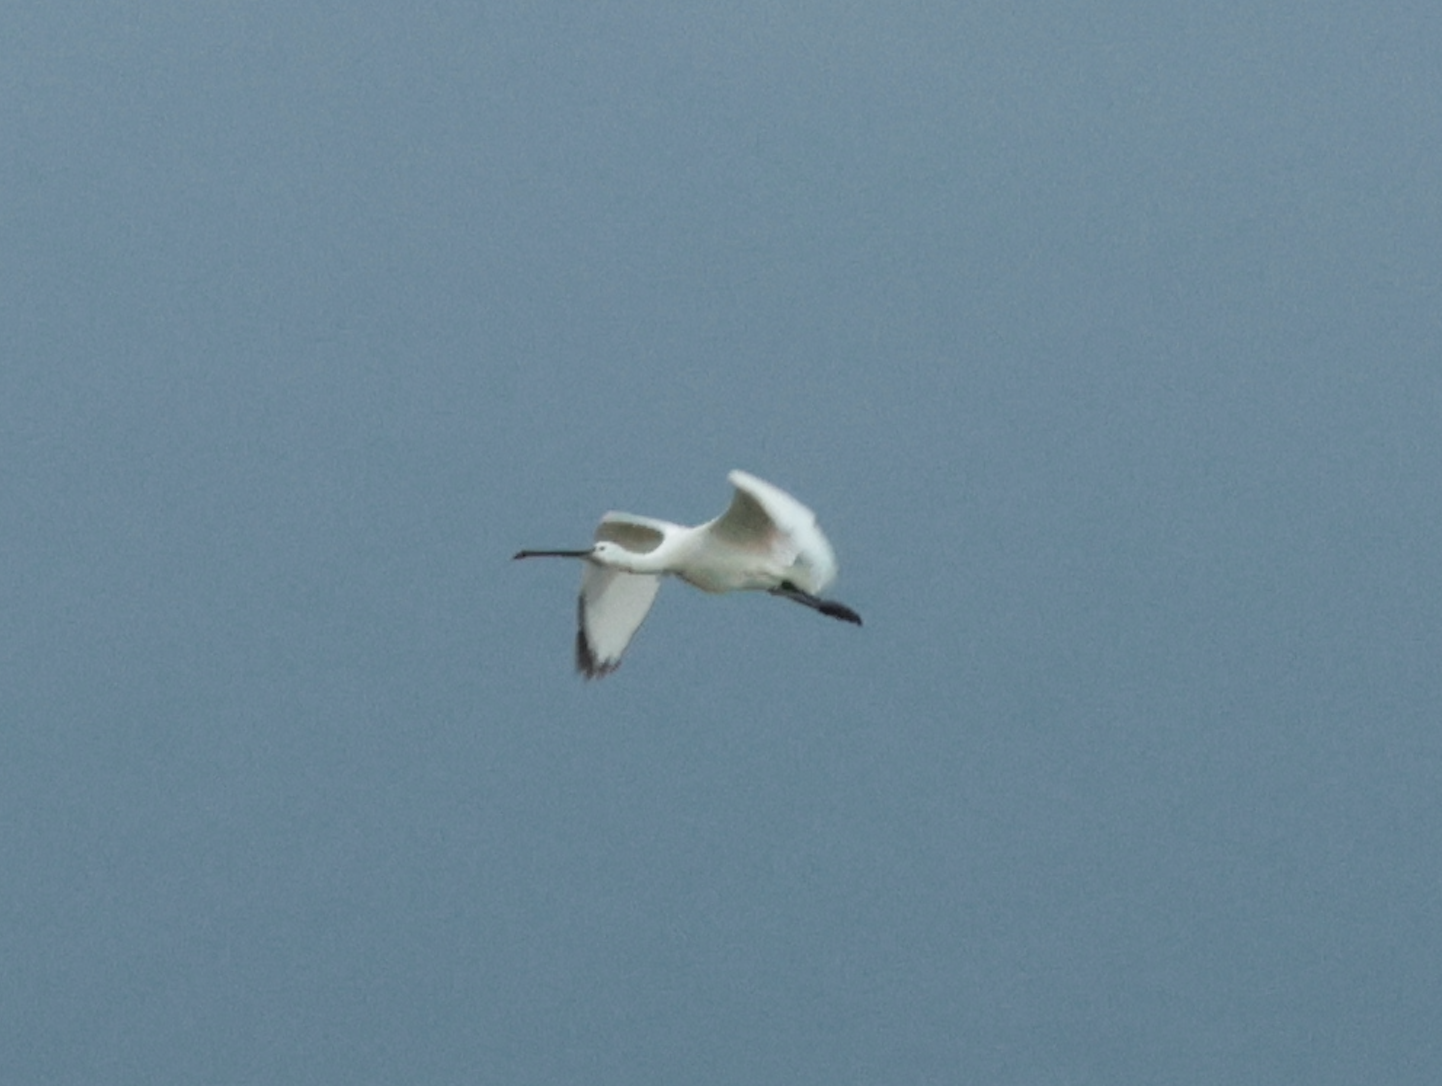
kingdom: Animalia
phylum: Chordata
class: Aves
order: Pelecaniformes
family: Threskiornithidae
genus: Platalea
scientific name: Platalea leucorodia
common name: Eurasian spoonbill
